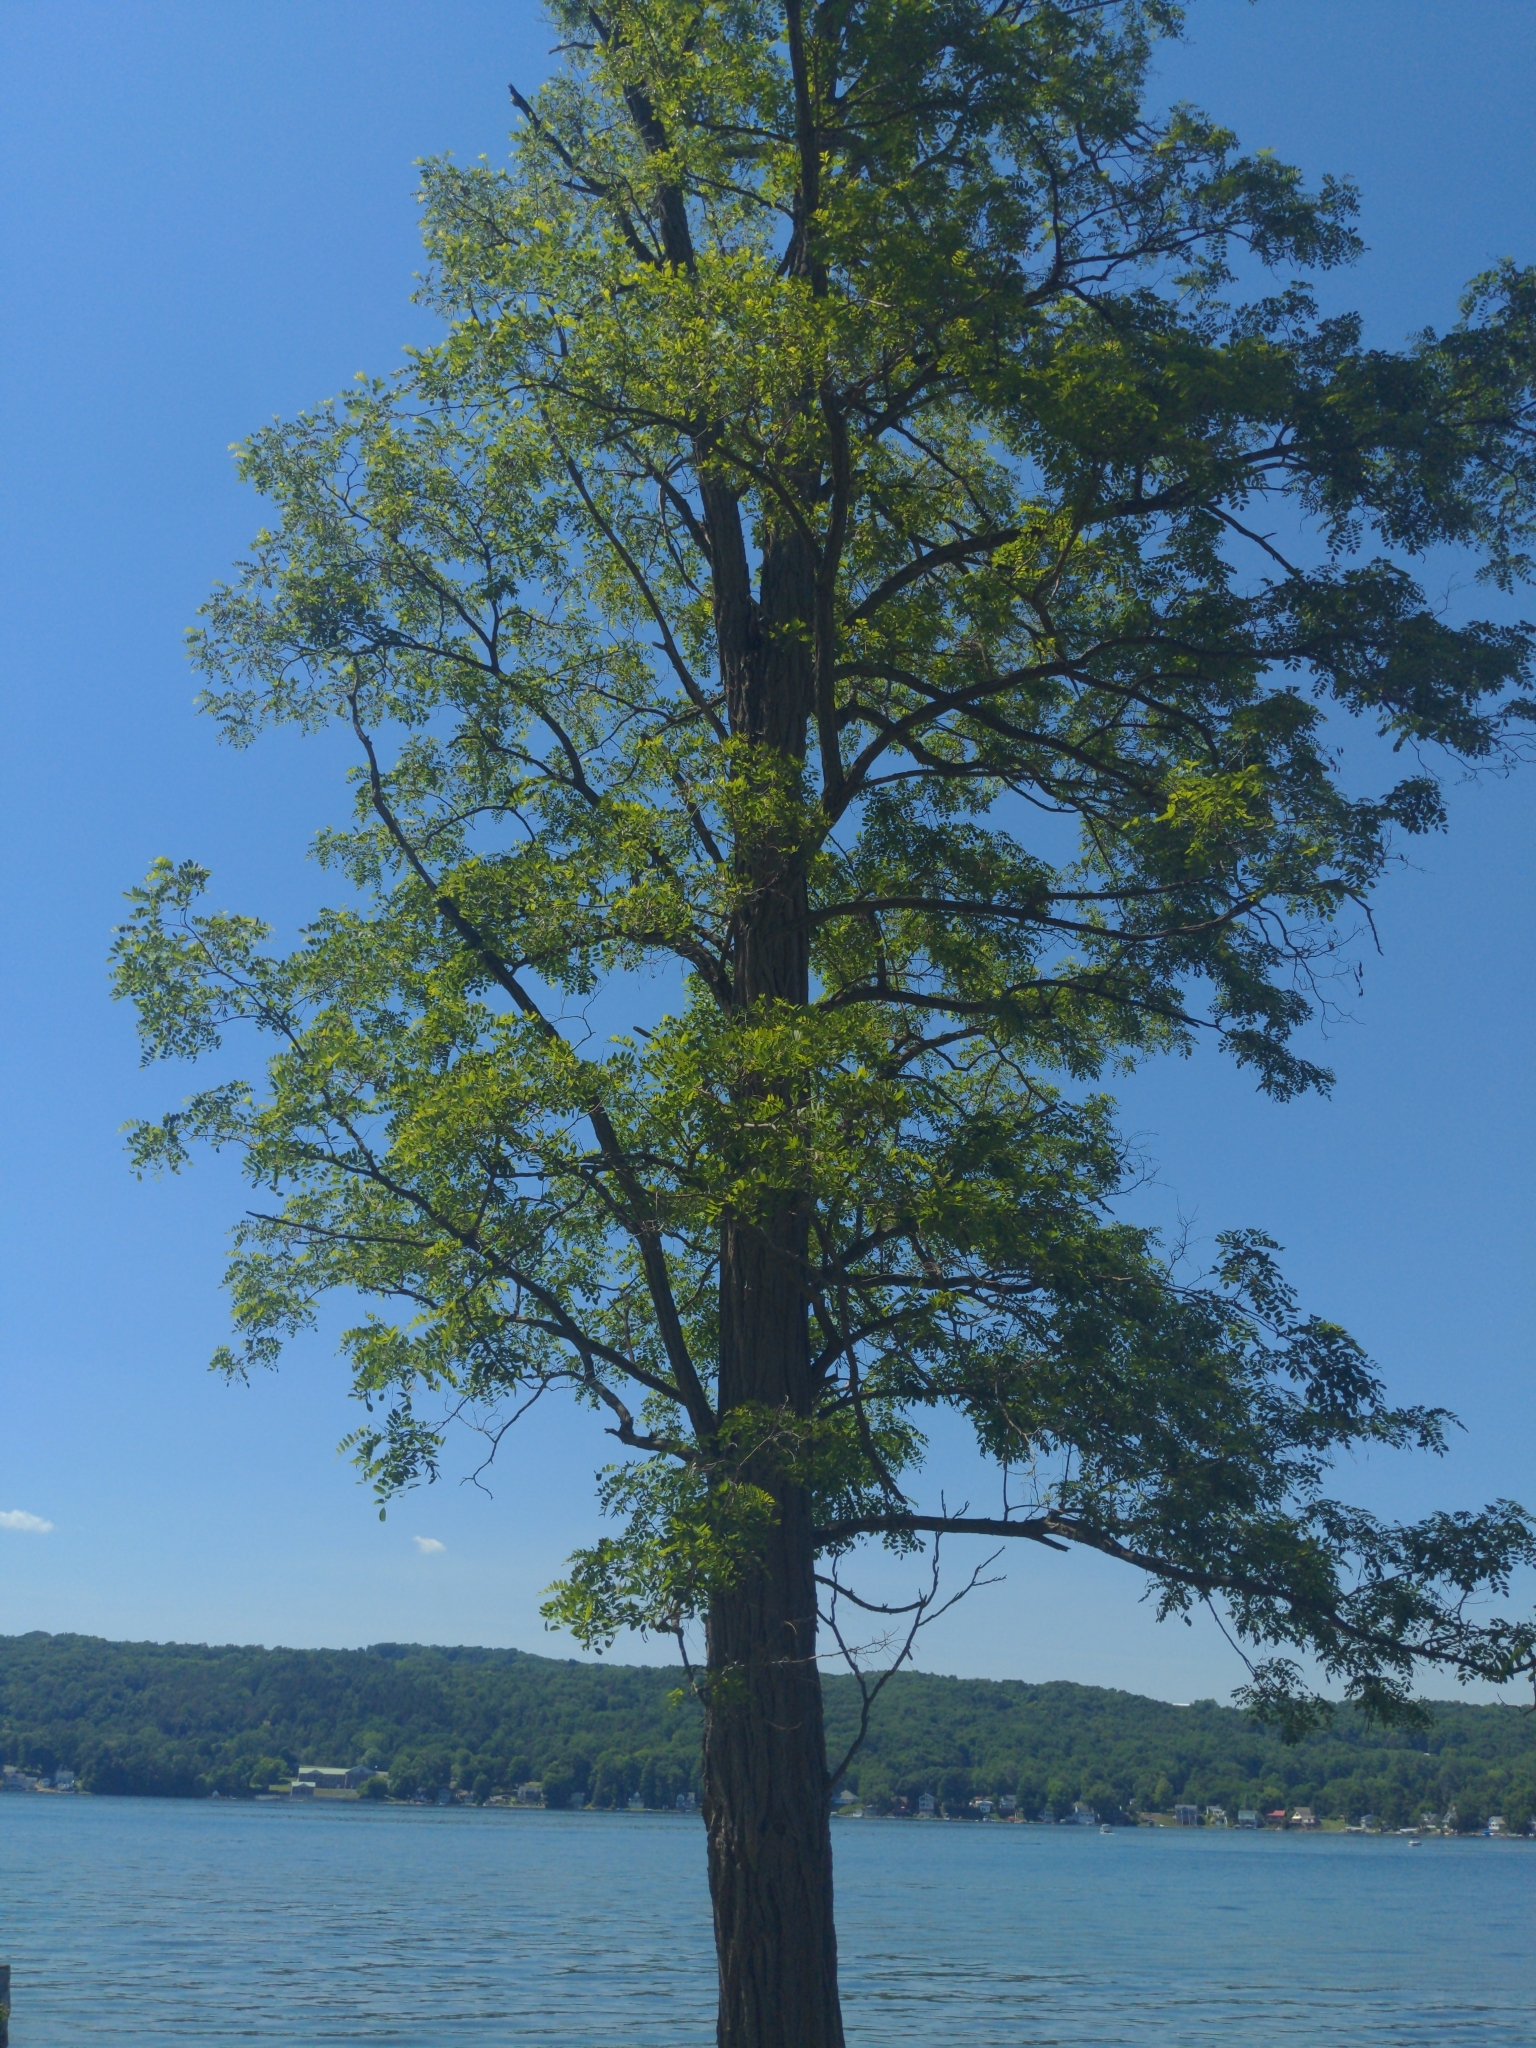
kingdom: Plantae
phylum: Tracheophyta
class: Magnoliopsida
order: Fabales
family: Fabaceae
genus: Robinia
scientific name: Robinia pseudoacacia
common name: Black locust
